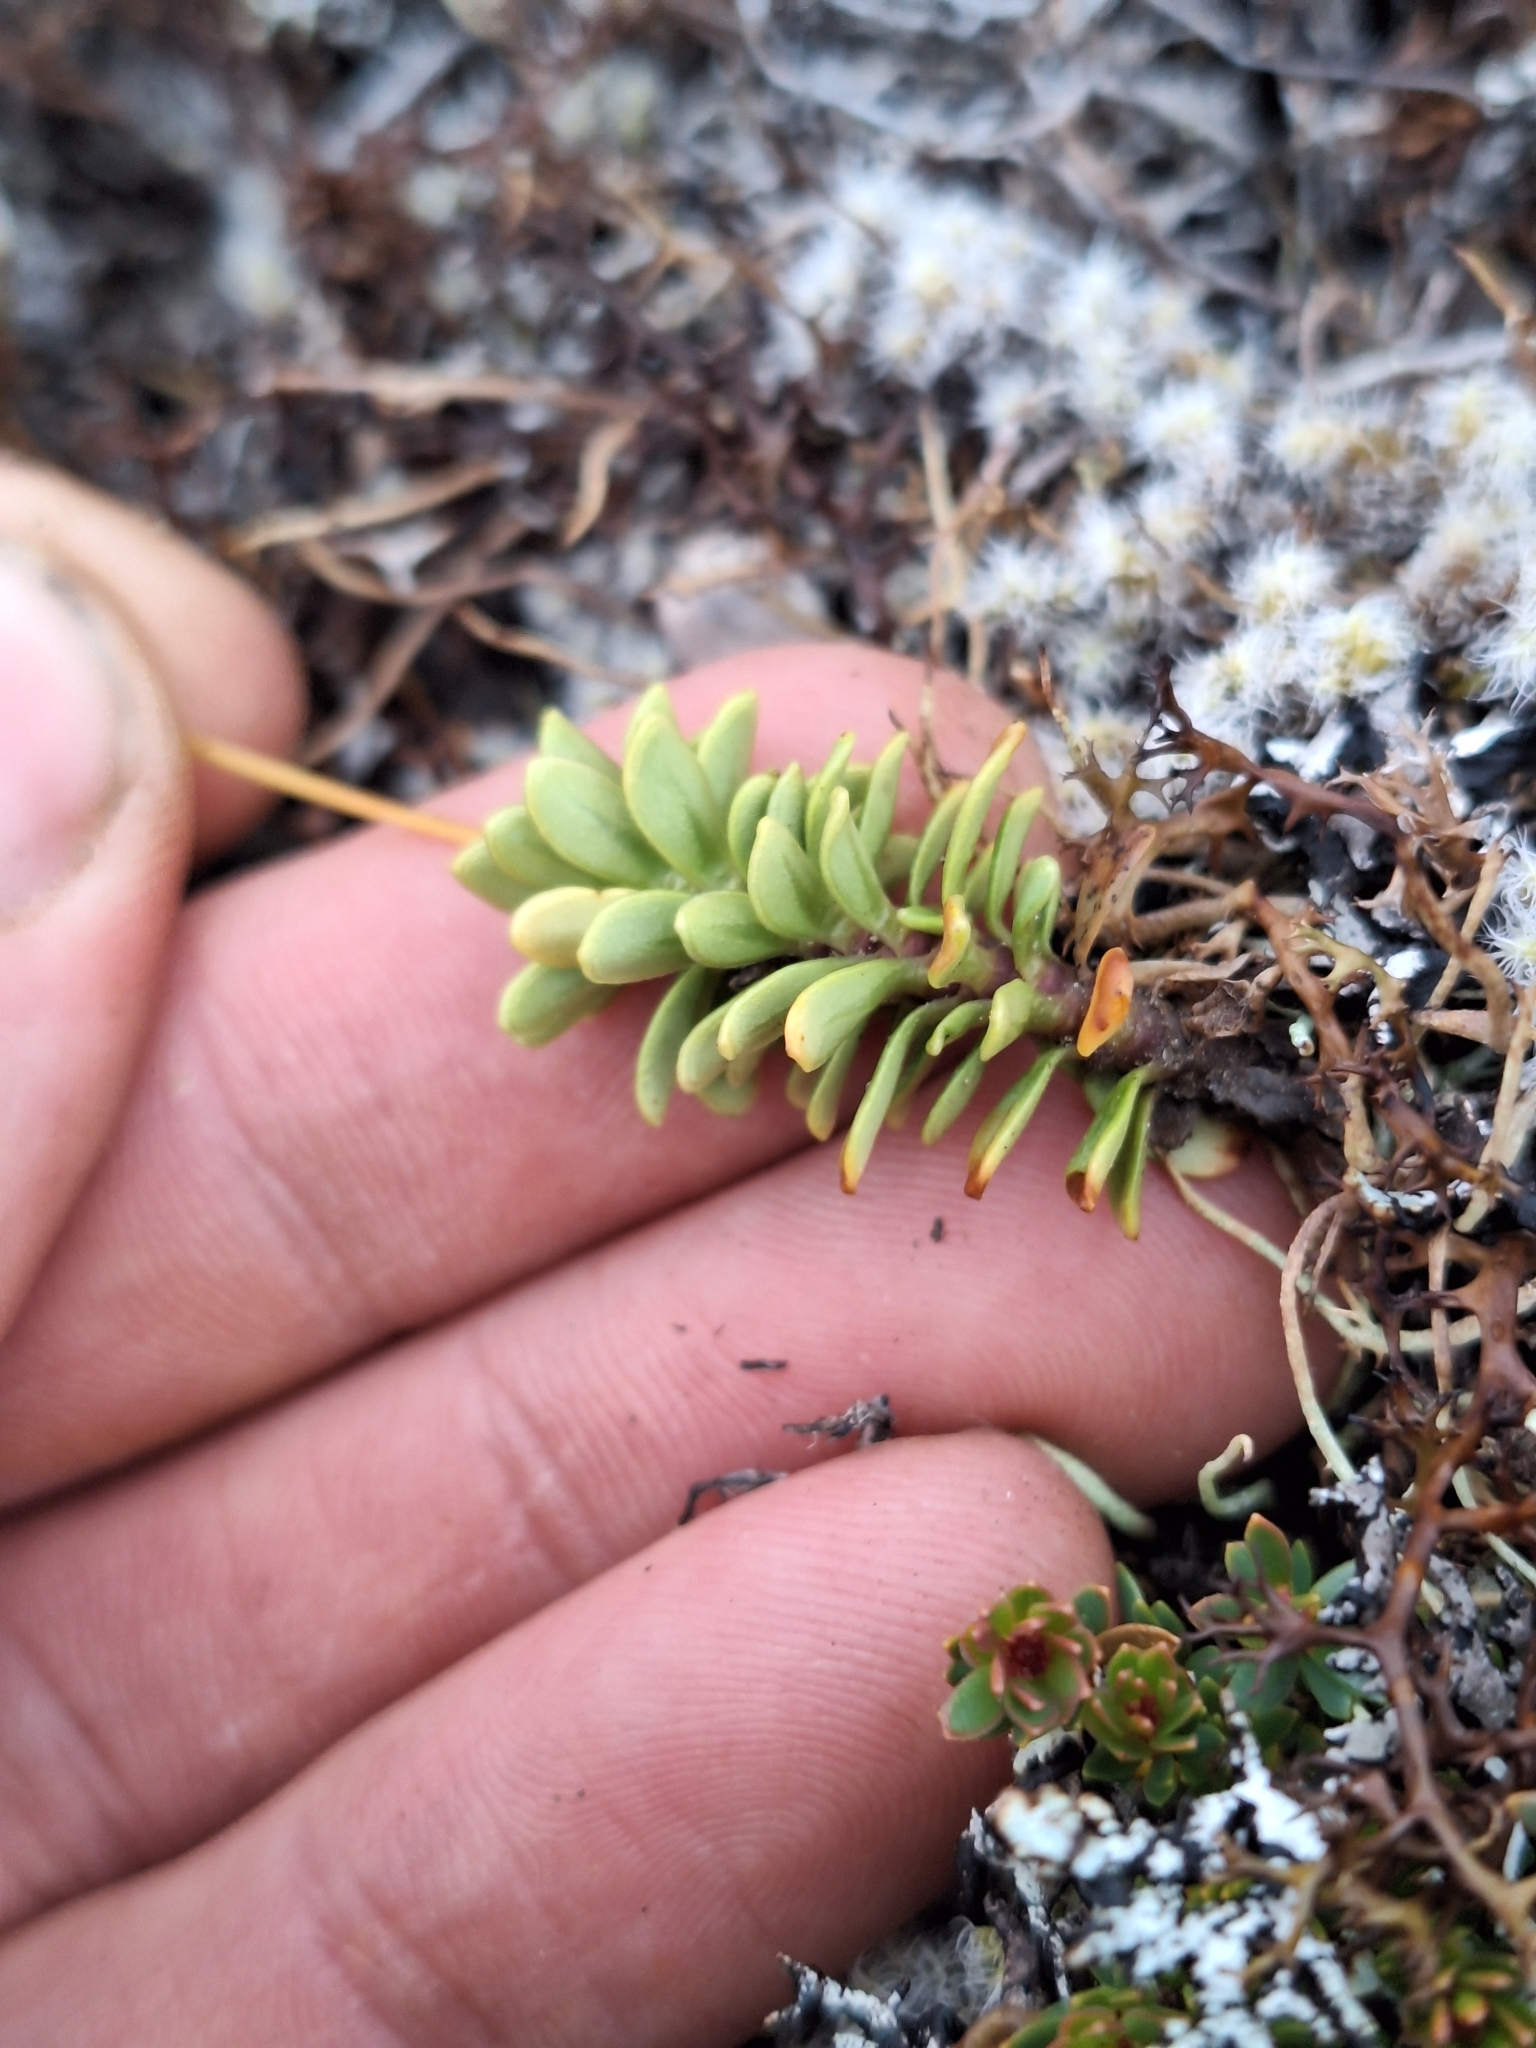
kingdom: Plantae
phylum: Tracheophyta
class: Magnoliopsida
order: Asterales
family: Stylidiaceae
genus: Forstera
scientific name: Forstera tenella
